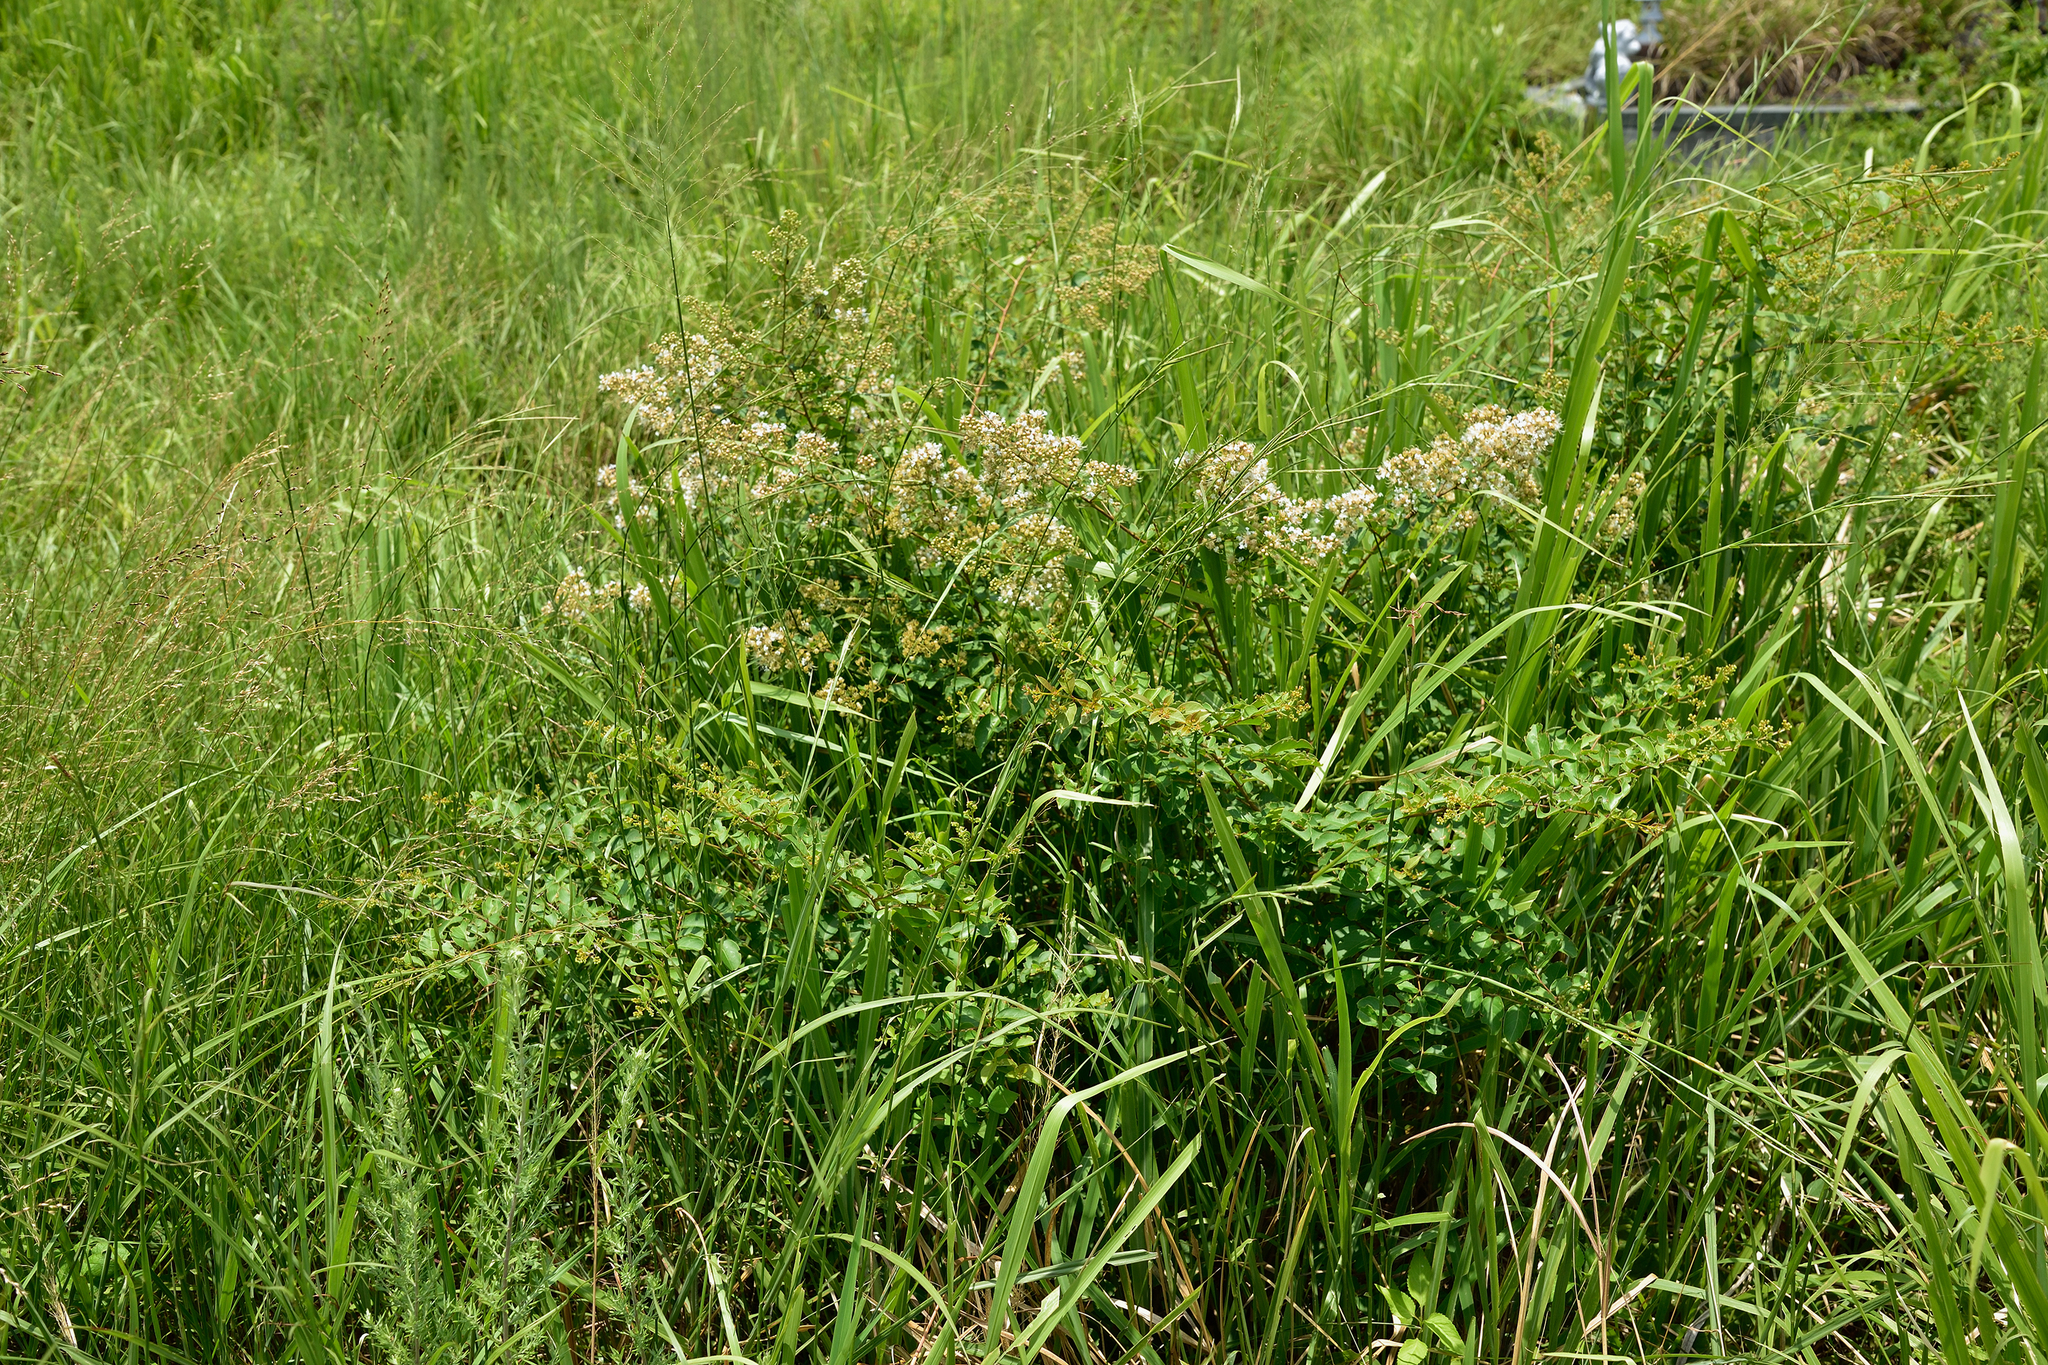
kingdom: Plantae
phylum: Tracheophyta
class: Magnoliopsida
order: Myrtales
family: Lythraceae
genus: Lagerstroemia
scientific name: Lagerstroemia subcostata
